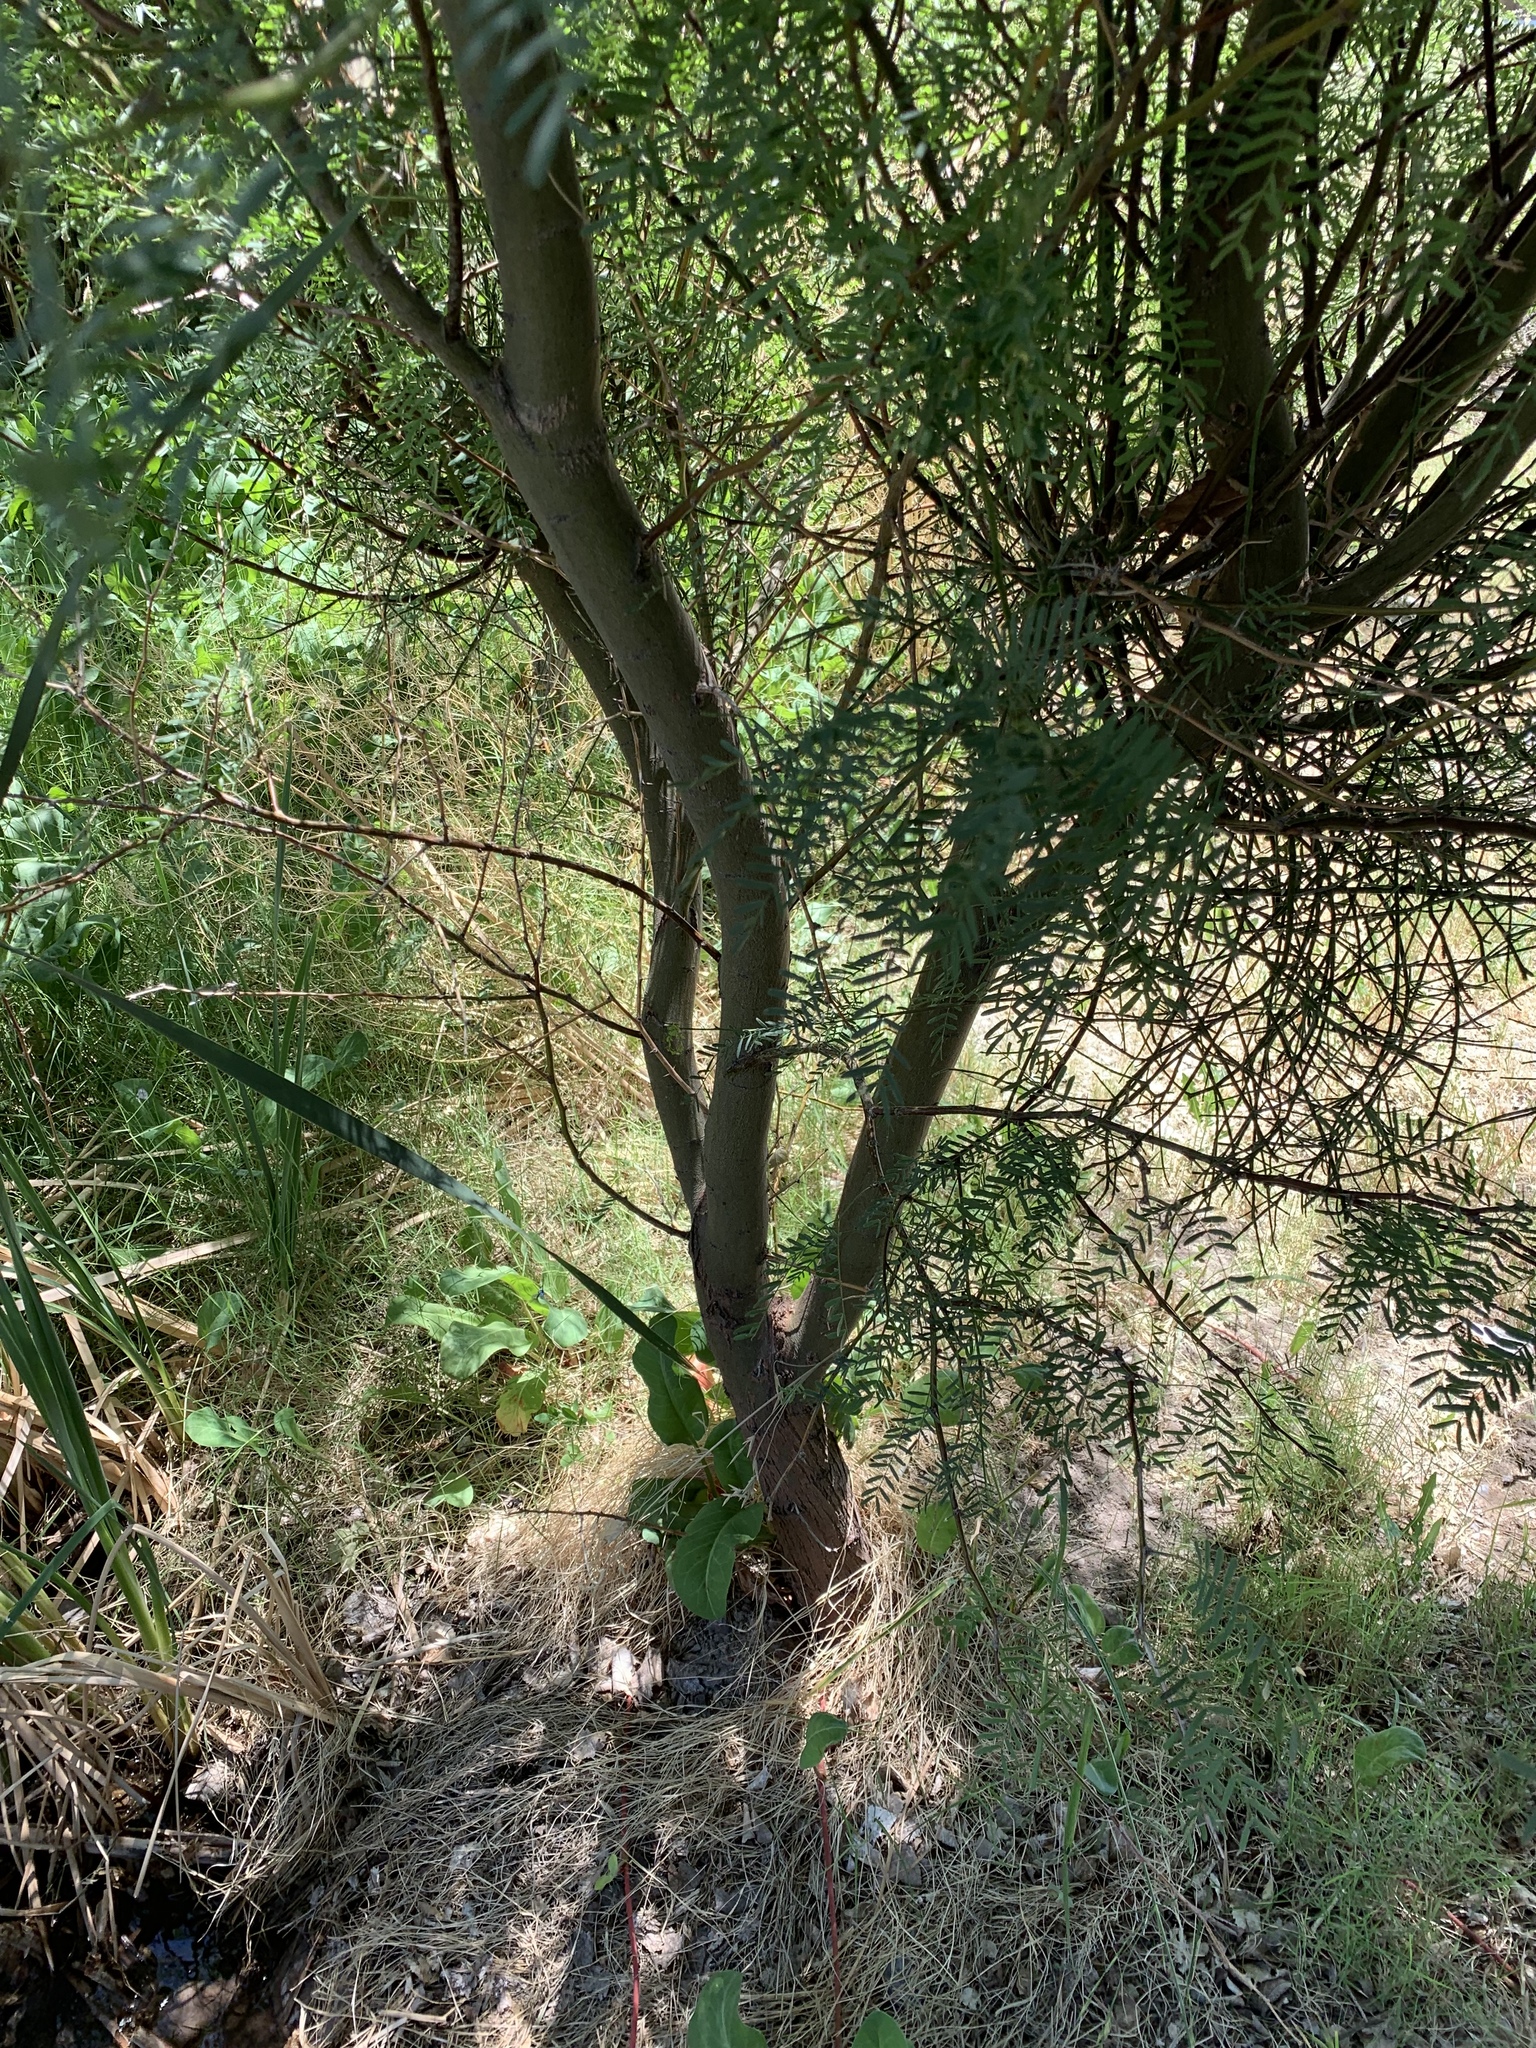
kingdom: Plantae
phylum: Tracheophyta
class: Magnoliopsida
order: Fabales
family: Fabaceae
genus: Prosopis
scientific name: Prosopis pubescens
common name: Screw-bean
